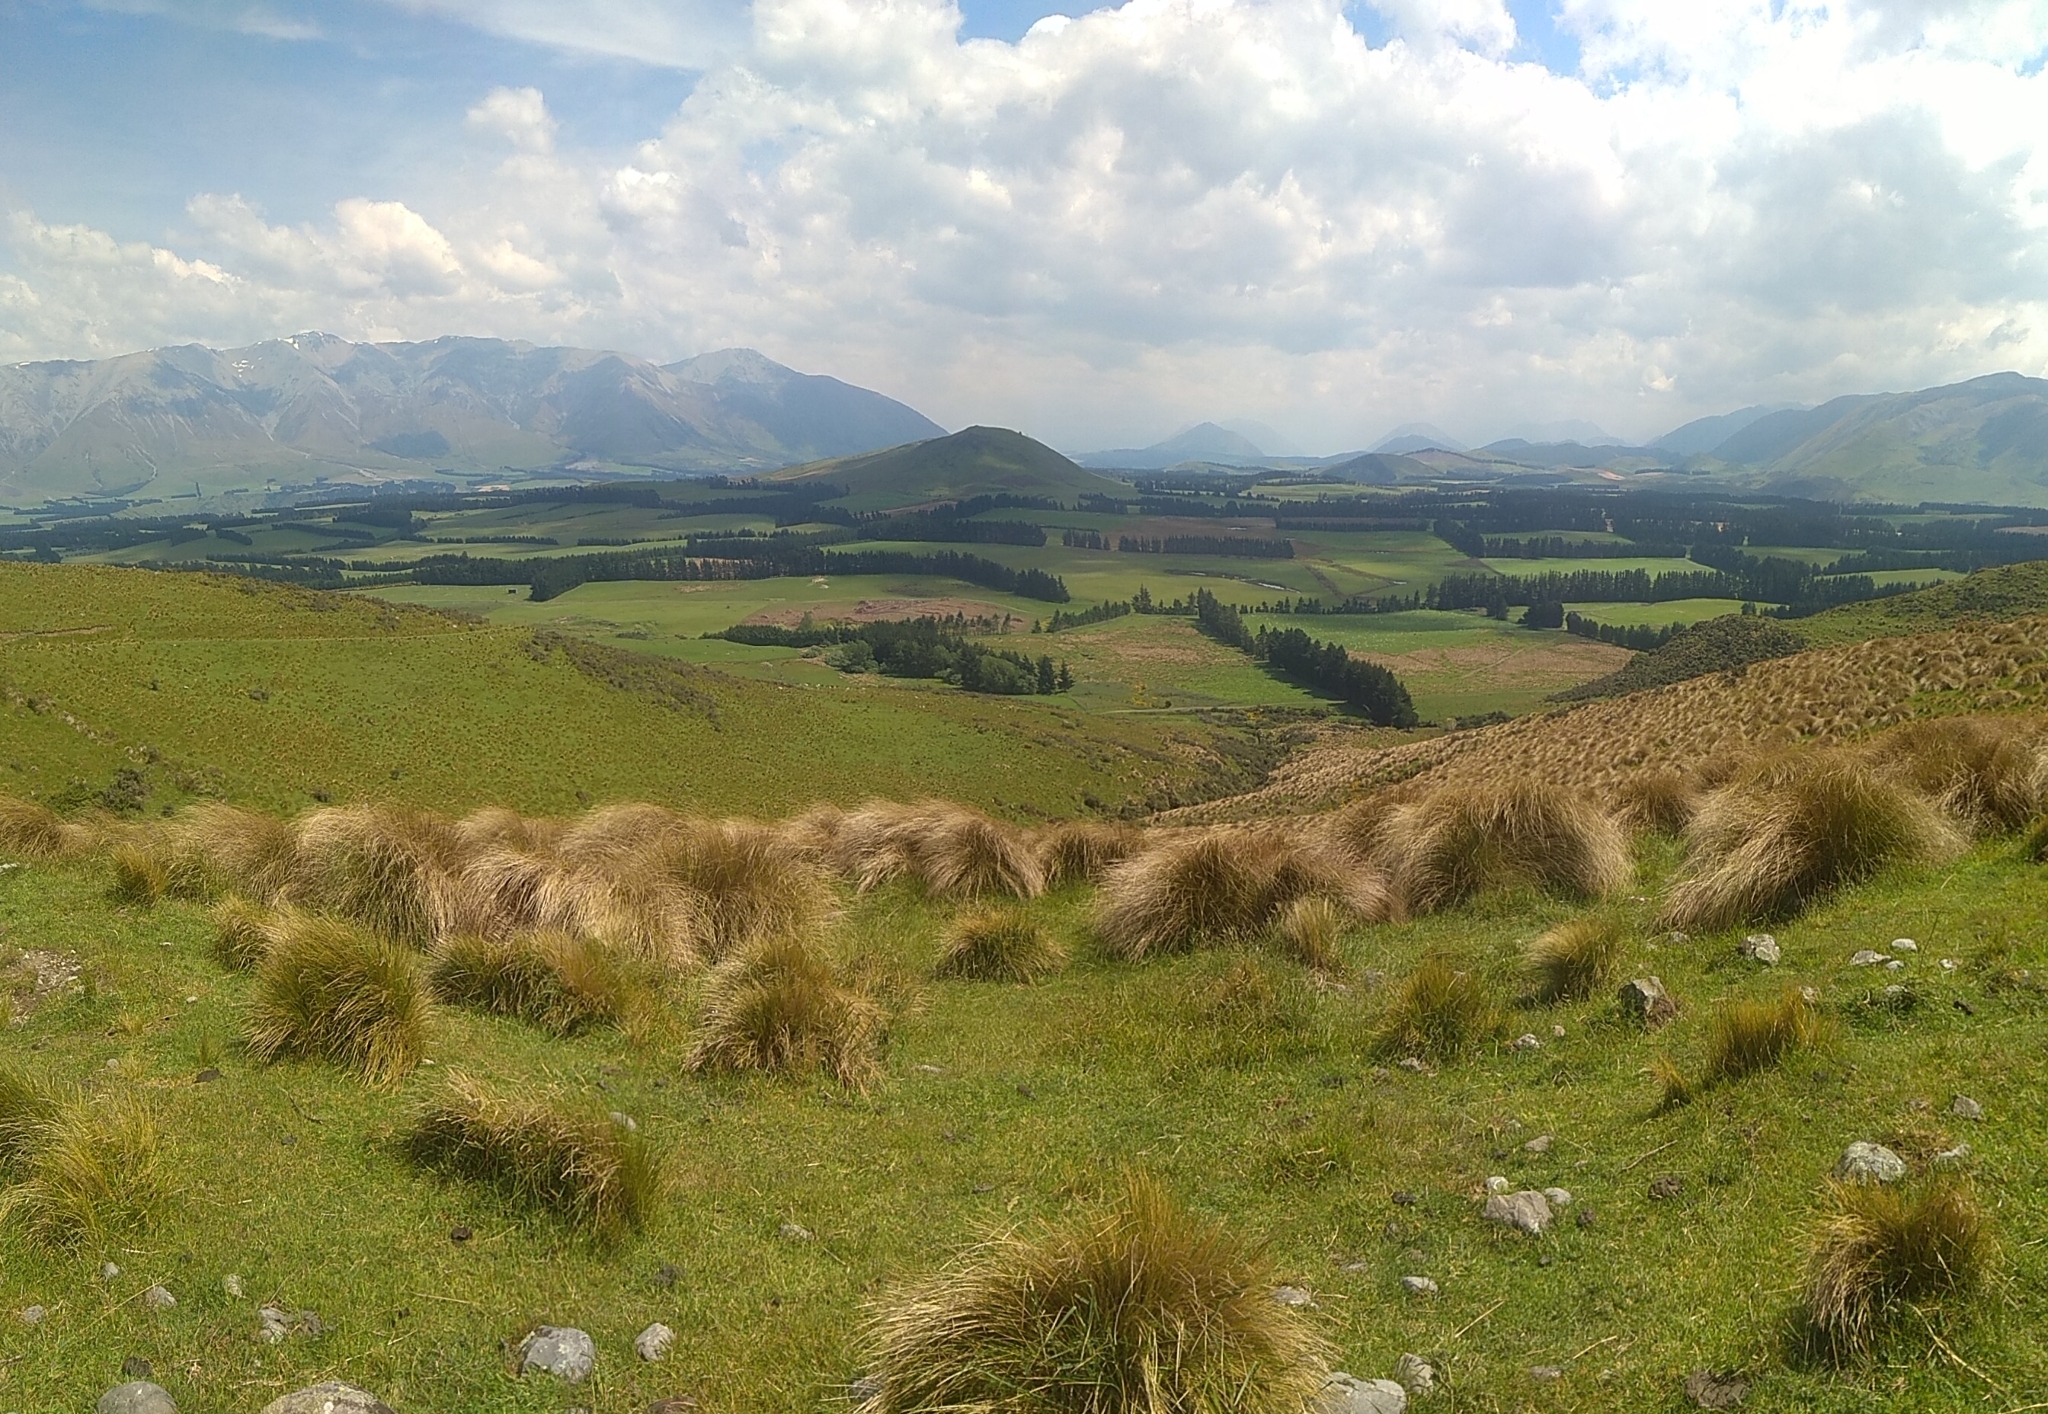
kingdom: Plantae
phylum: Tracheophyta
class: Liliopsida
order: Poales
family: Poaceae
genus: Chionochloa
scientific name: Chionochloa rubra
